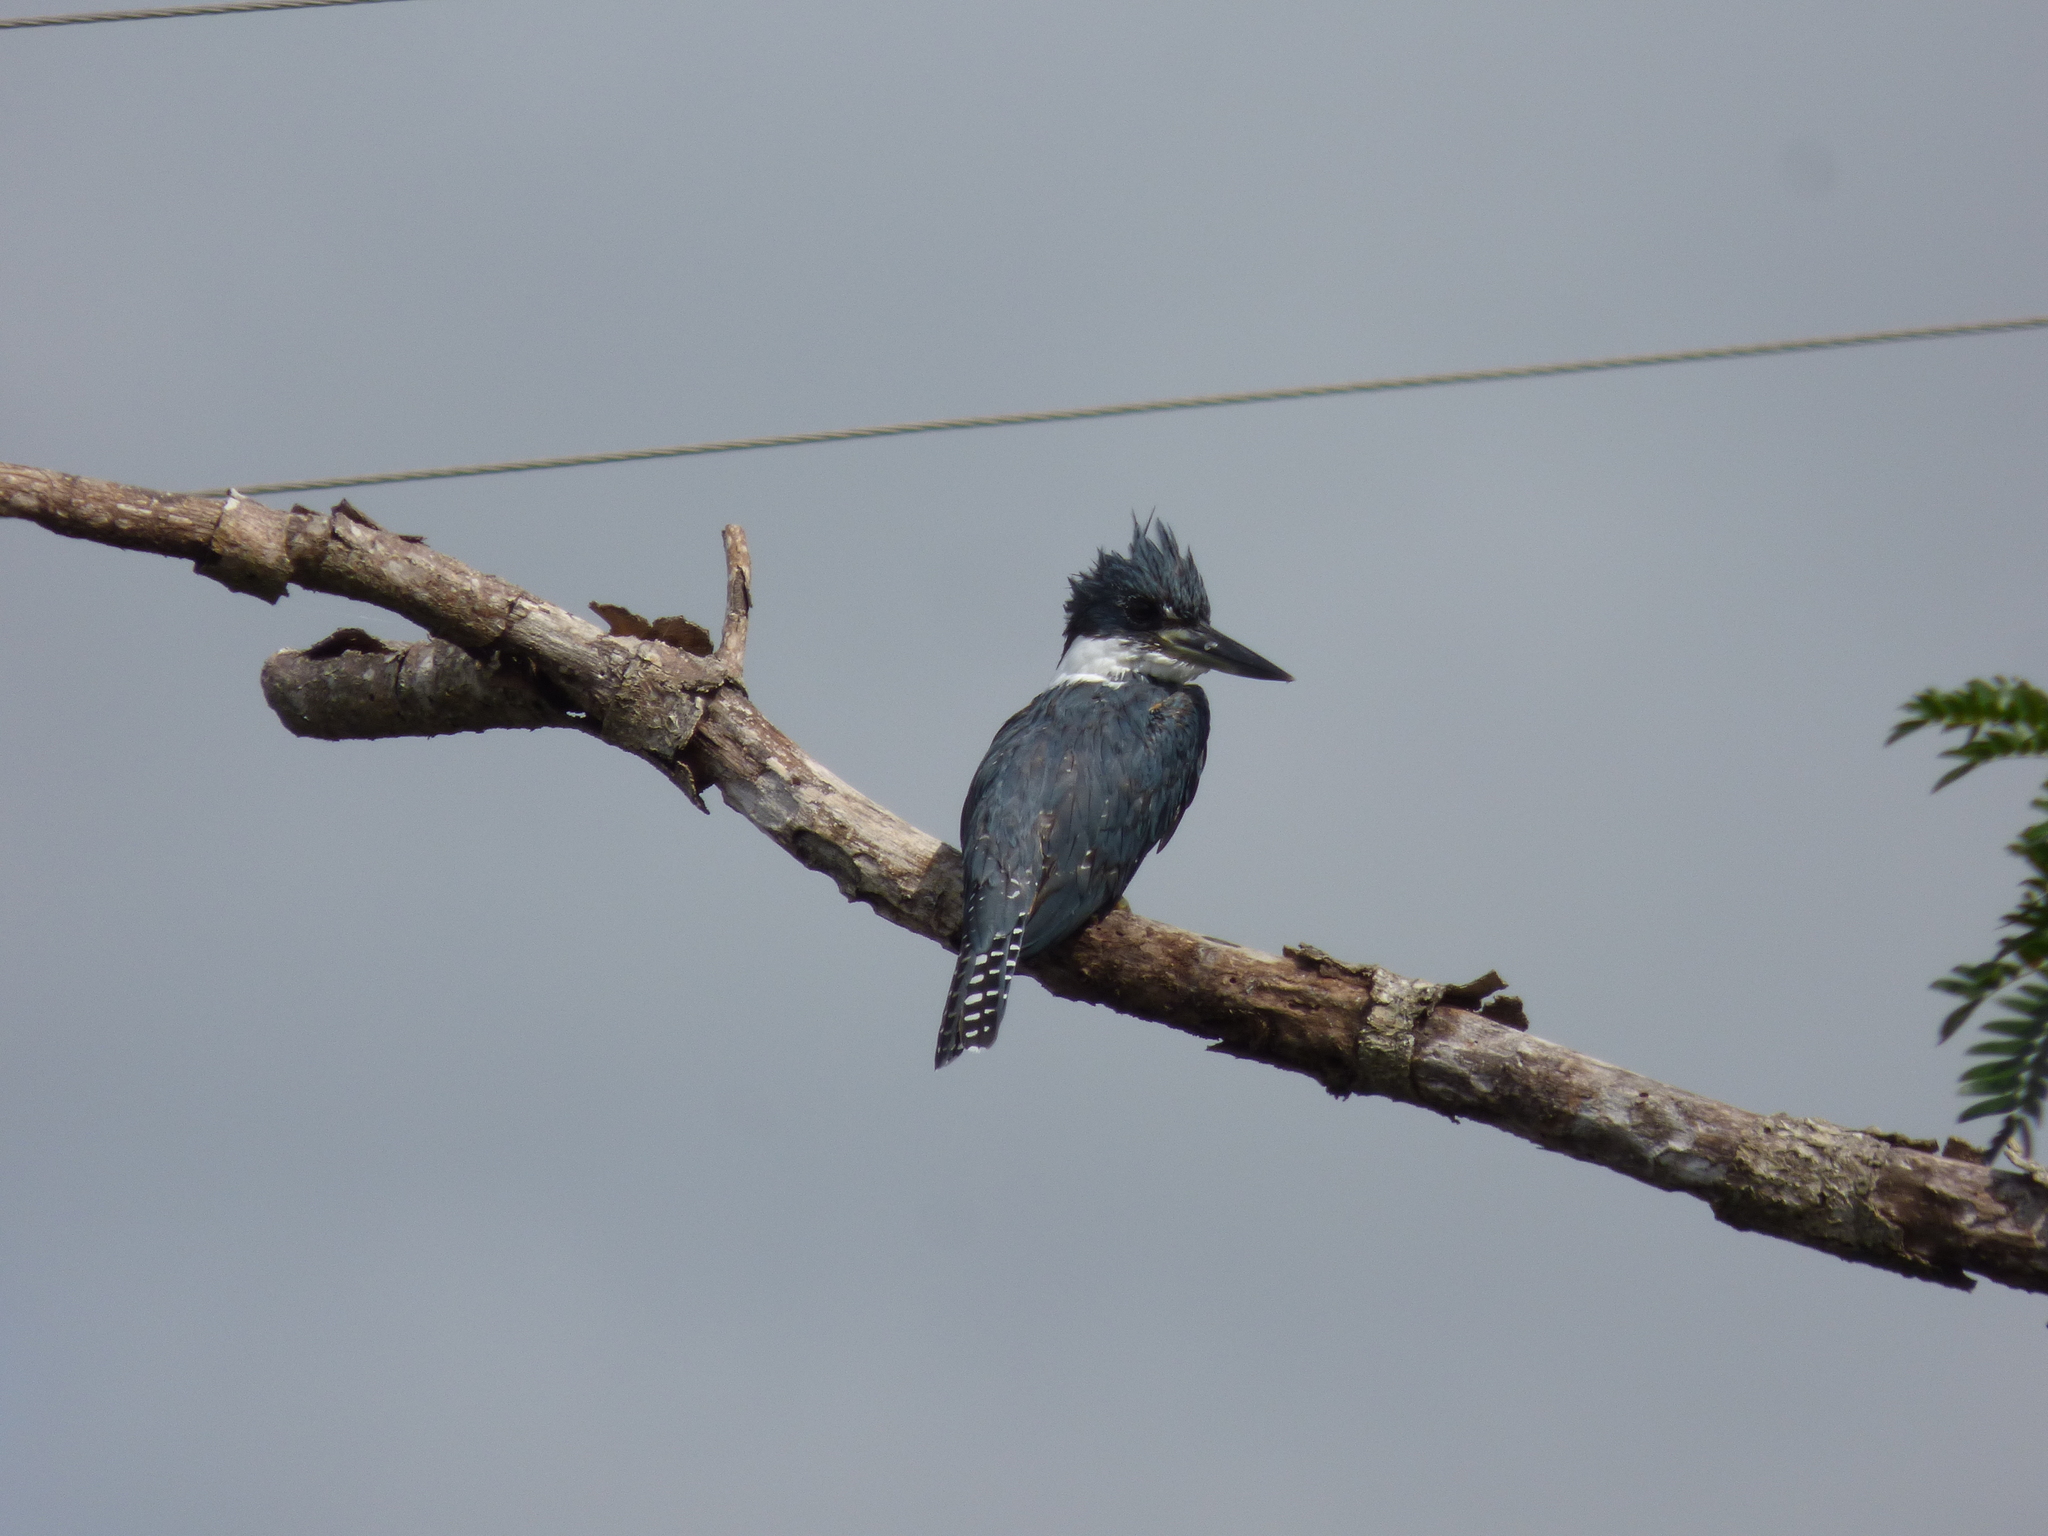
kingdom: Animalia
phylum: Chordata
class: Aves
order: Coraciiformes
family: Alcedinidae
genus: Megaceryle
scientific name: Megaceryle torquata
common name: Ringed kingfisher
